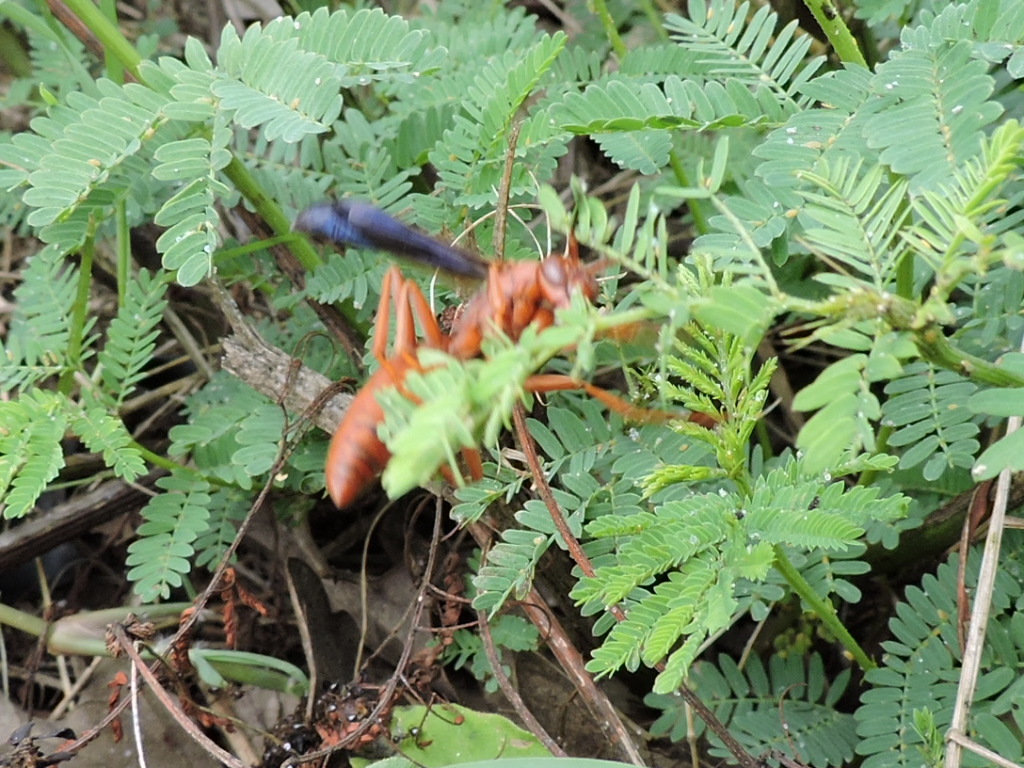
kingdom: Animalia
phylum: Arthropoda
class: Insecta
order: Hymenoptera
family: Eumenidae
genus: Polistes
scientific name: Polistes
